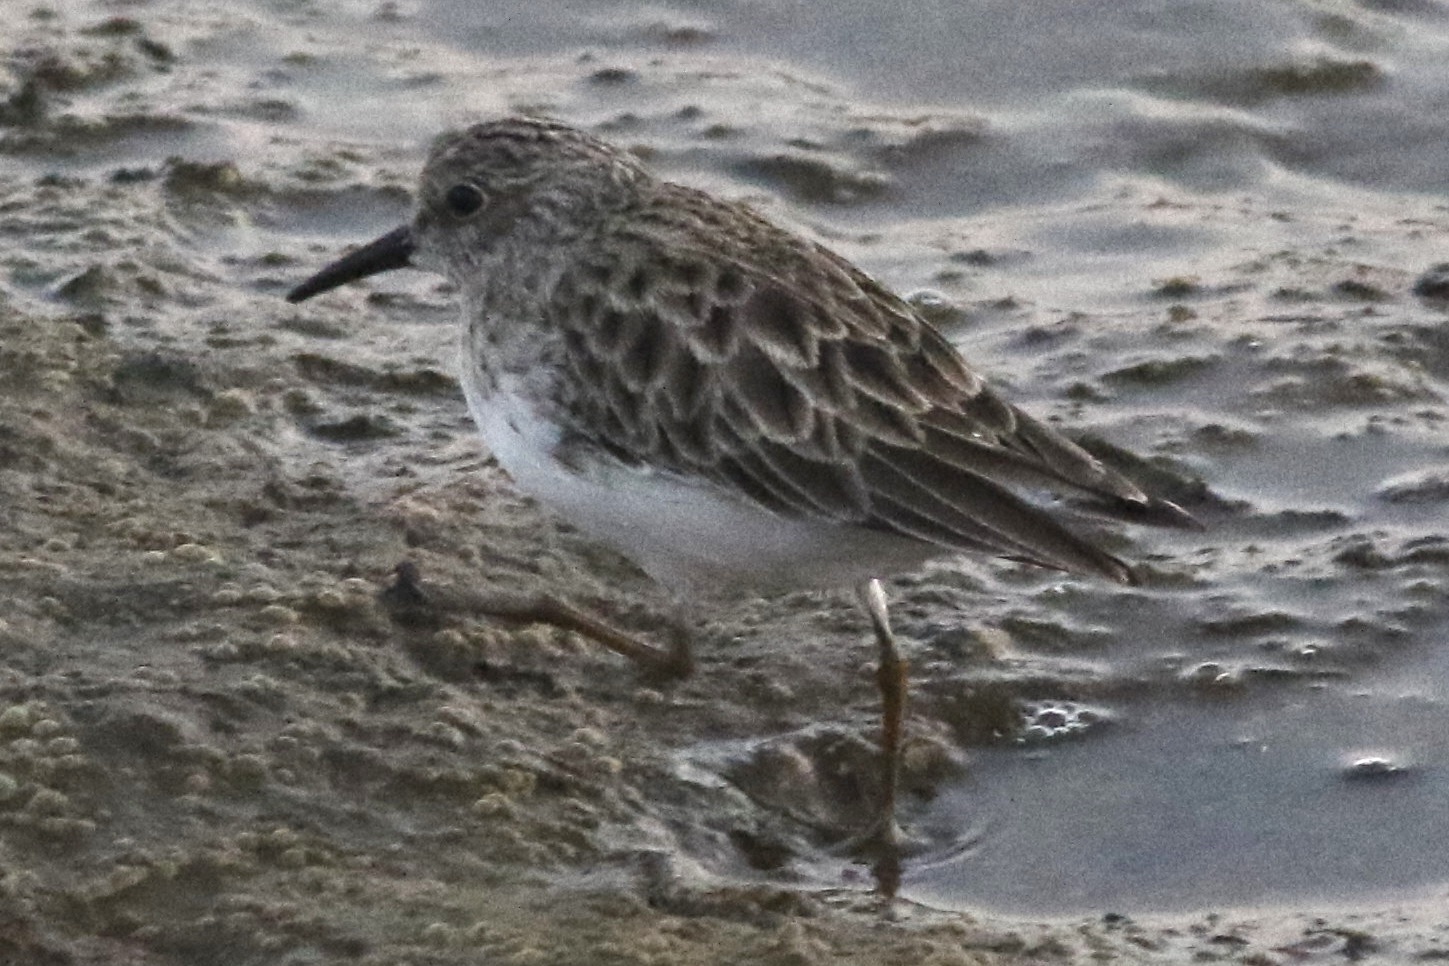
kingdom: Animalia
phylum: Chordata
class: Aves
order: Charadriiformes
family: Scolopacidae
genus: Calidris
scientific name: Calidris minutilla
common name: Least sandpiper
